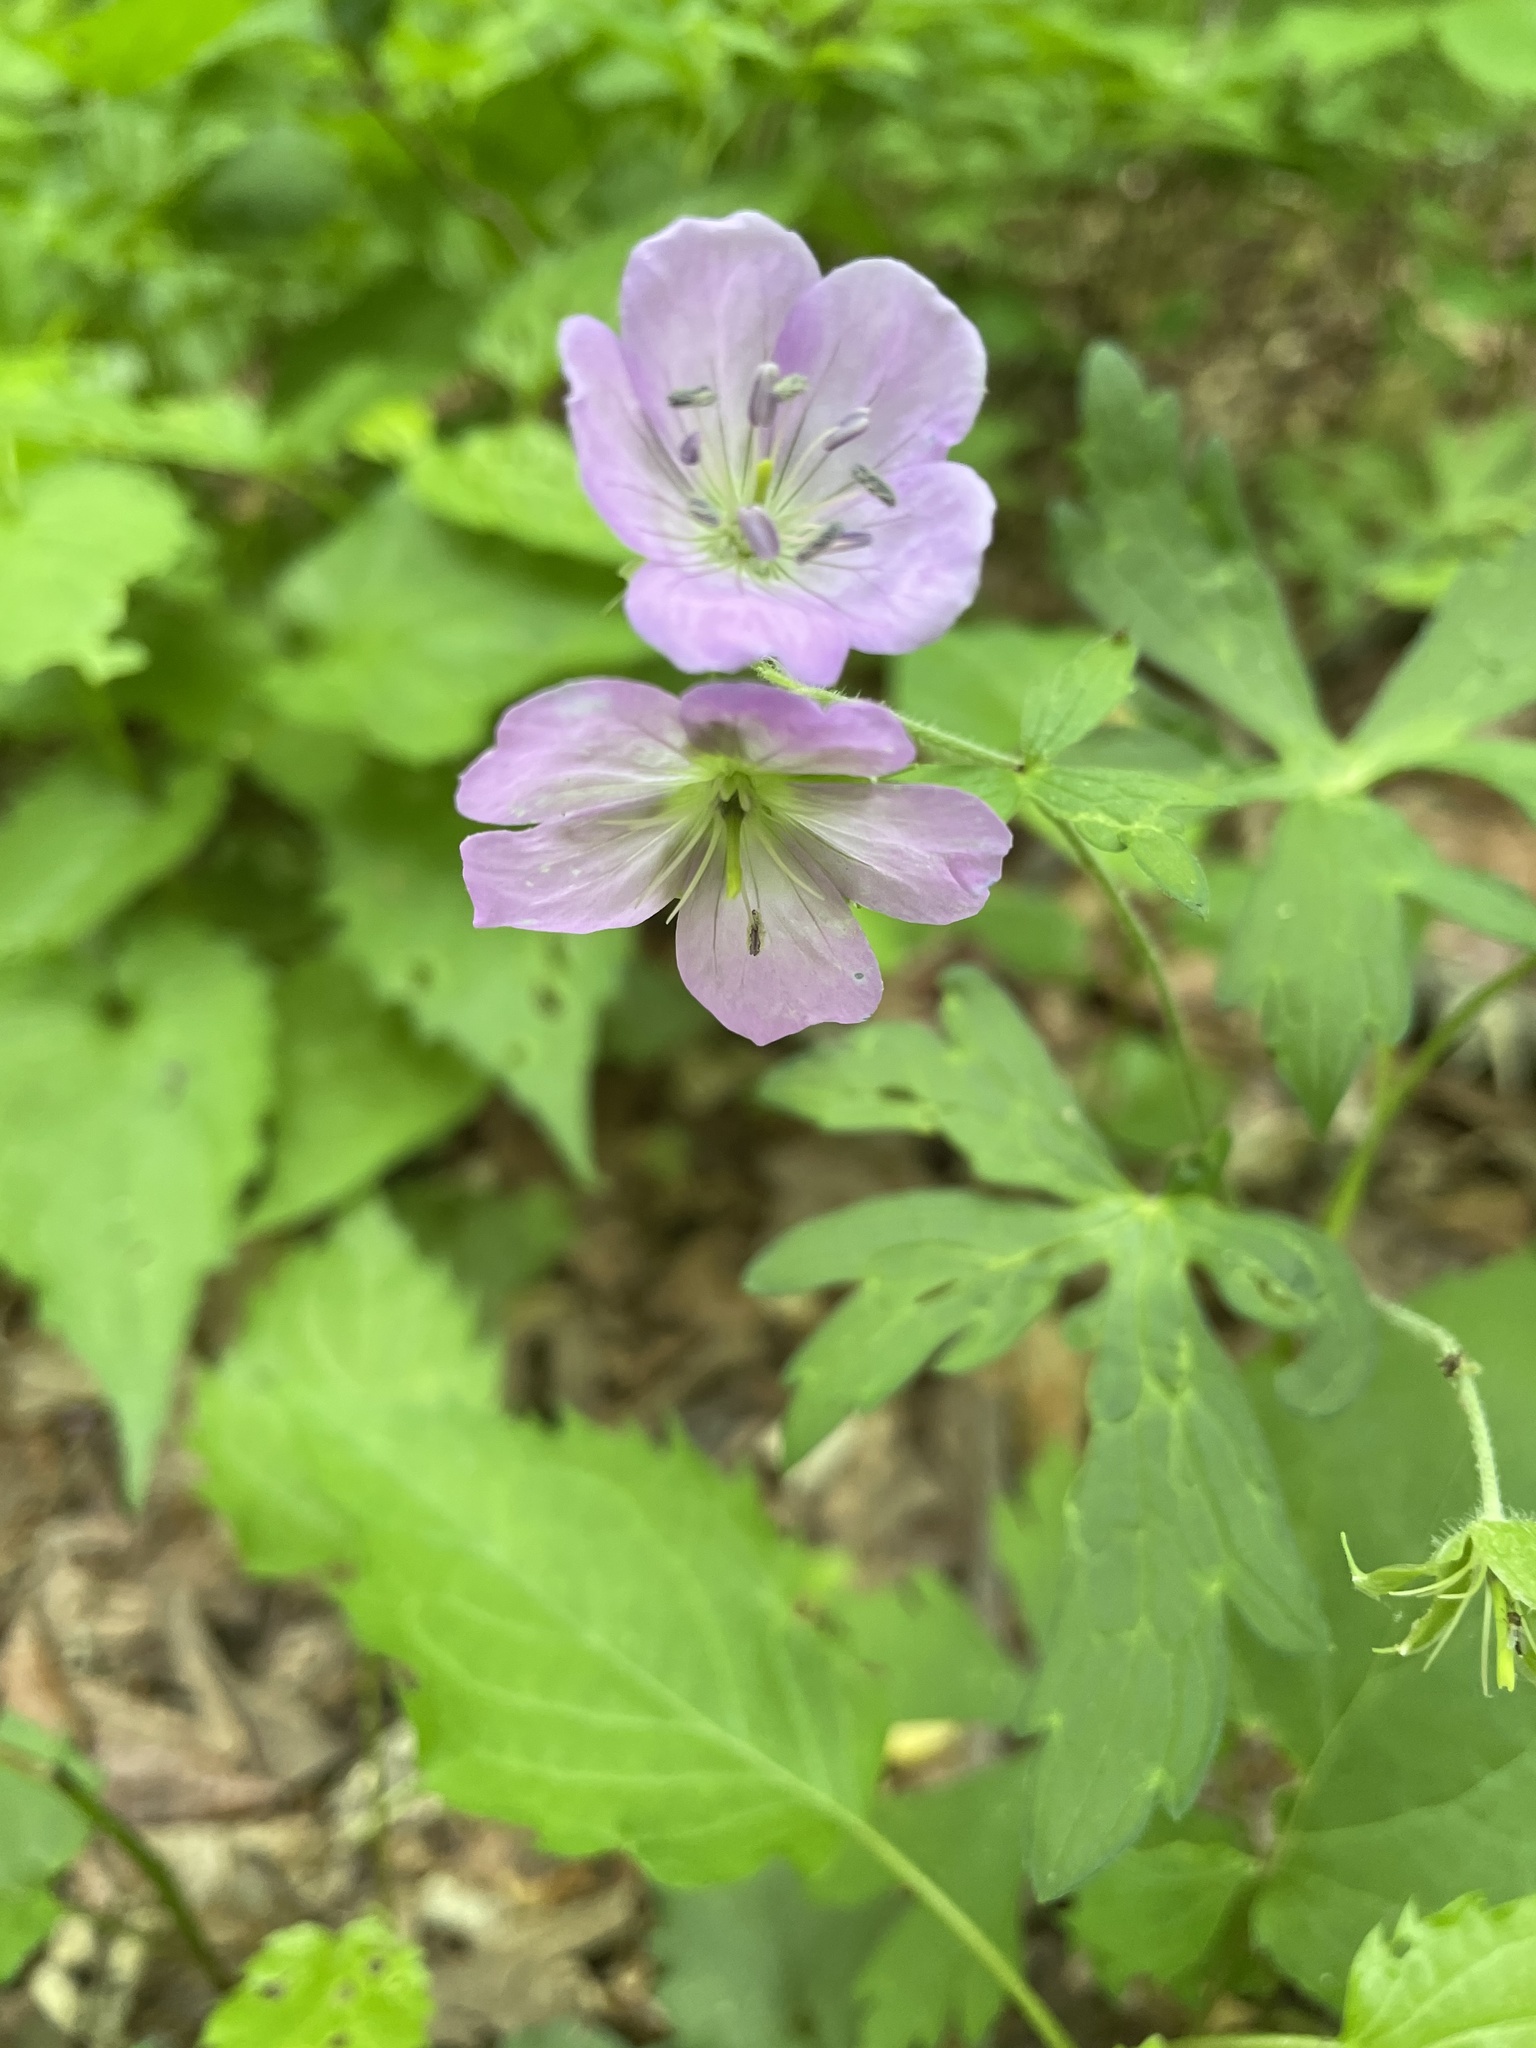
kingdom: Plantae
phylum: Tracheophyta
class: Magnoliopsida
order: Geraniales
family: Geraniaceae
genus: Geranium
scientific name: Geranium maculatum
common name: Spotted geranium
